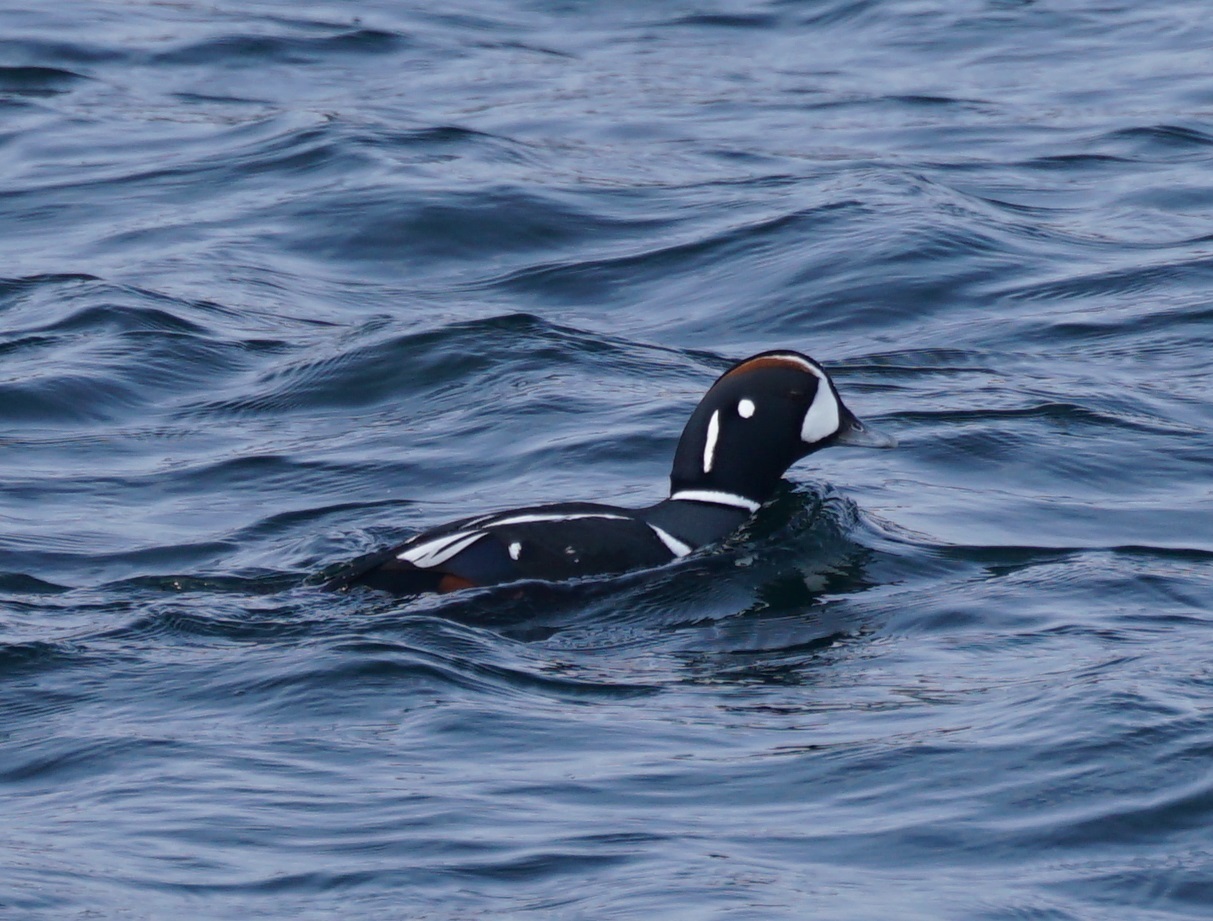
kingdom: Animalia
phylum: Chordata
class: Aves
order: Anseriformes
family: Anatidae
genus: Histrionicus
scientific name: Histrionicus histrionicus
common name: Harlequin duck
